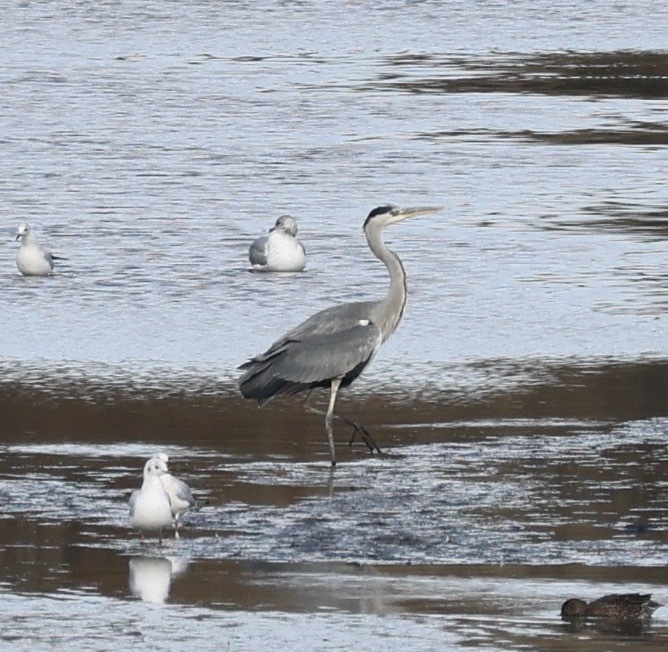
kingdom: Animalia
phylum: Chordata
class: Aves
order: Pelecaniformes
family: Ardeidae
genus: Ardea
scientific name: Ardea cinerea
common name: Grey heron
